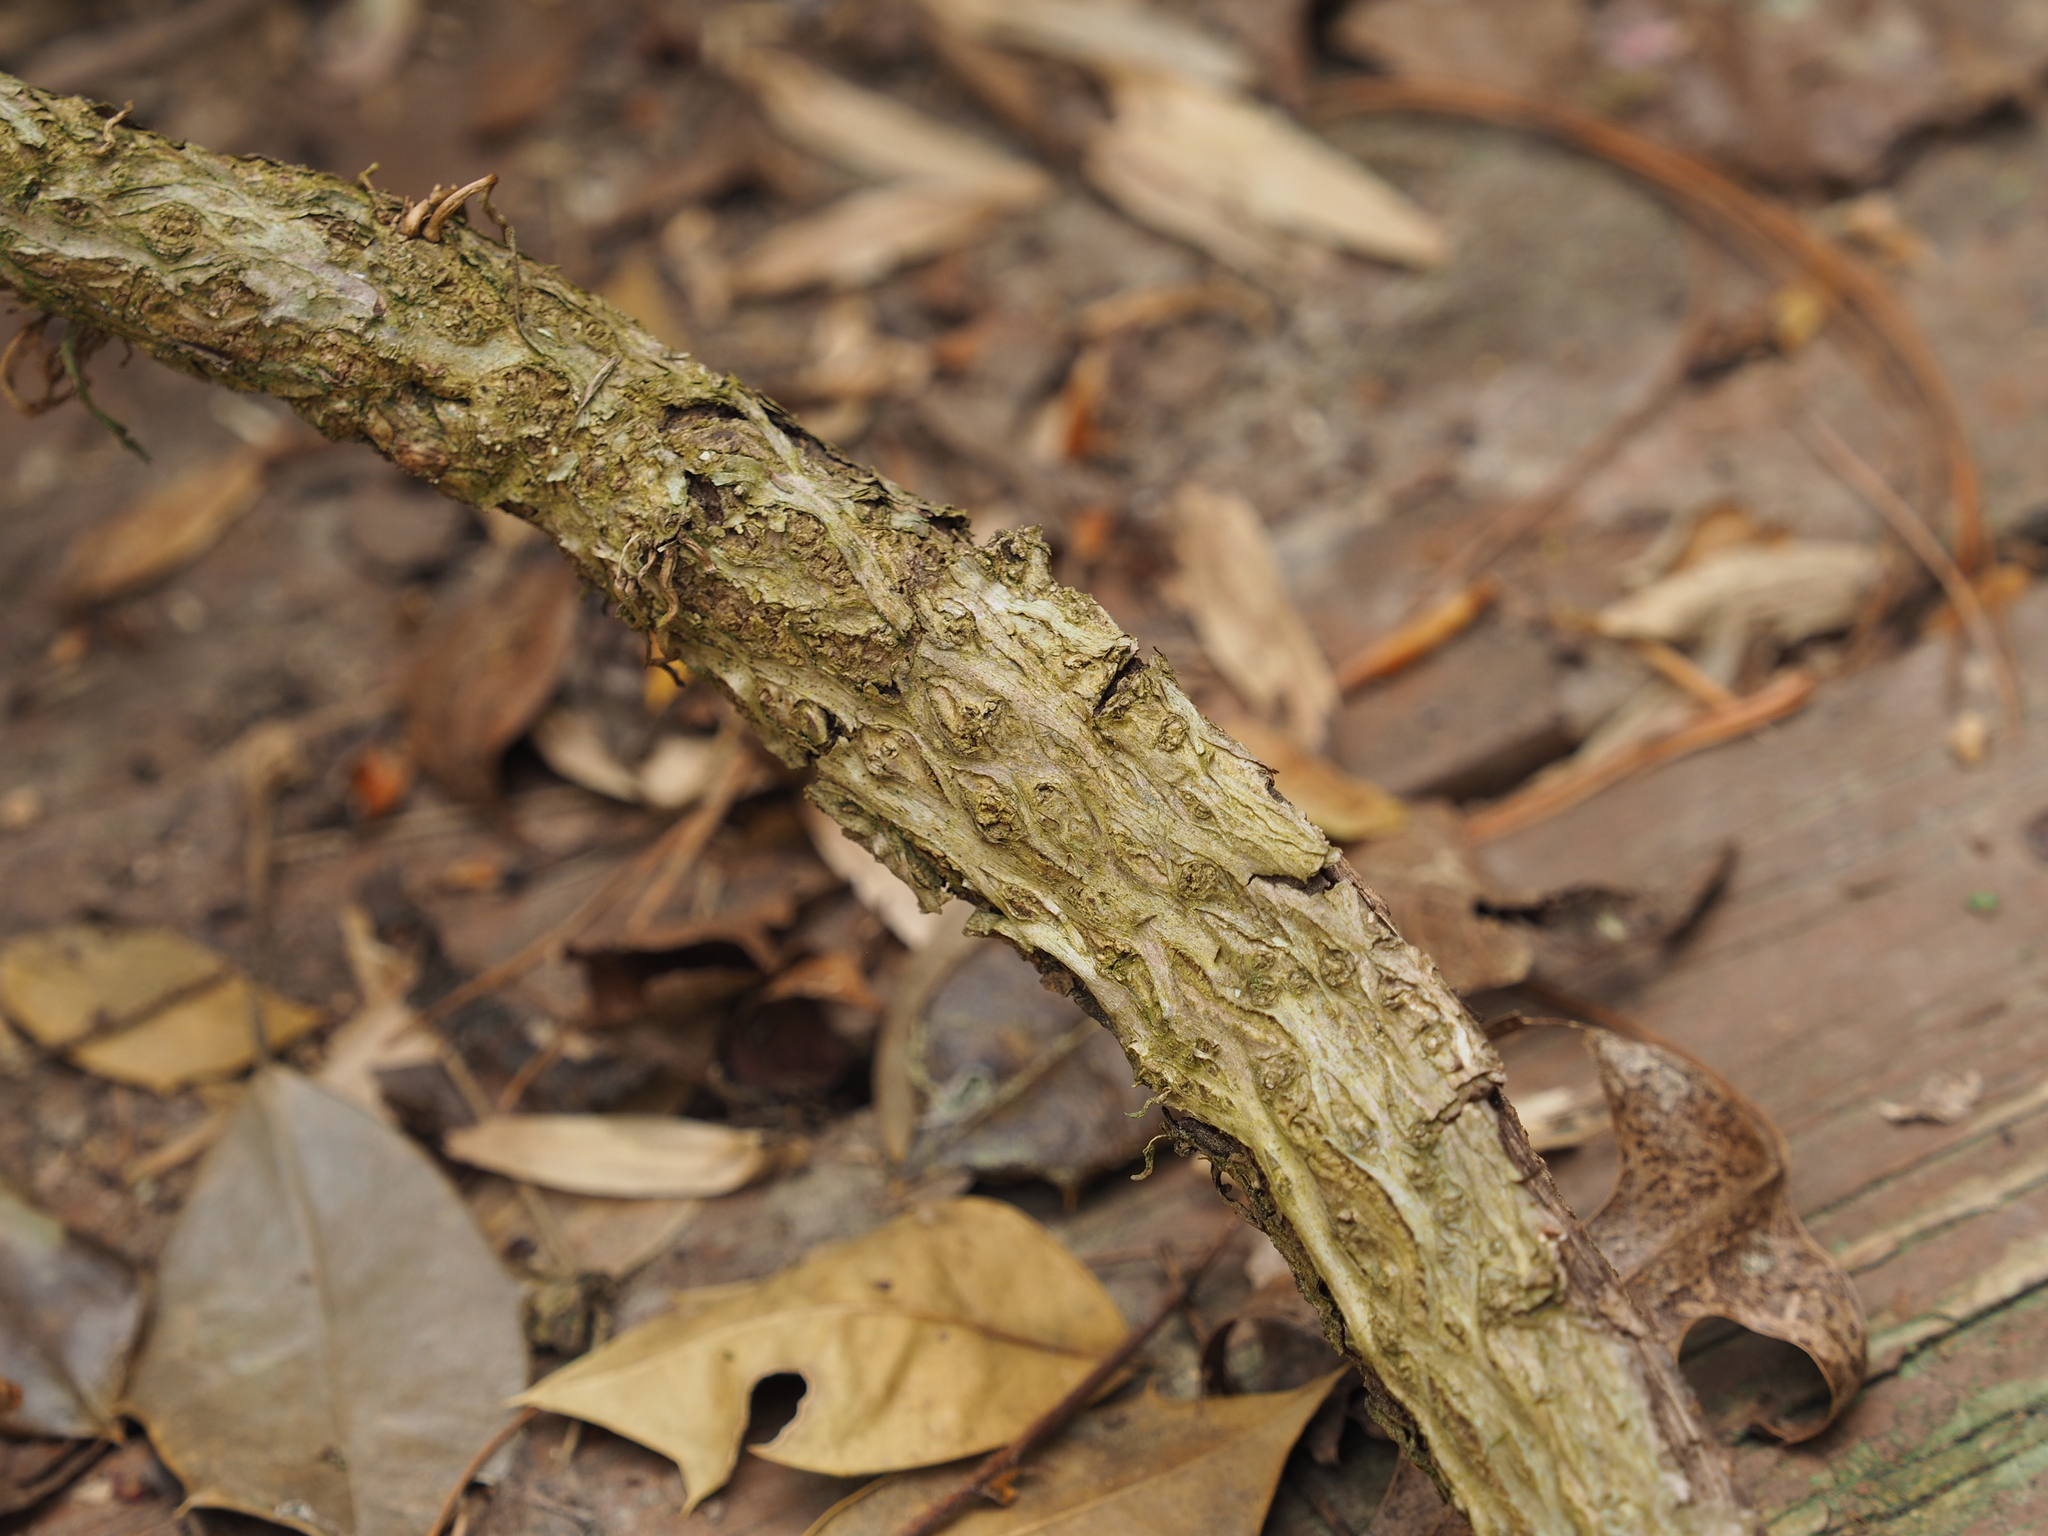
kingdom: Plantae
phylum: Tracheophyta
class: Magnoliopsida
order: Vitales
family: Vitaceae
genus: Parthenocissus
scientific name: Parthenocissus quinquefolia
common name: Virginia-creeper
